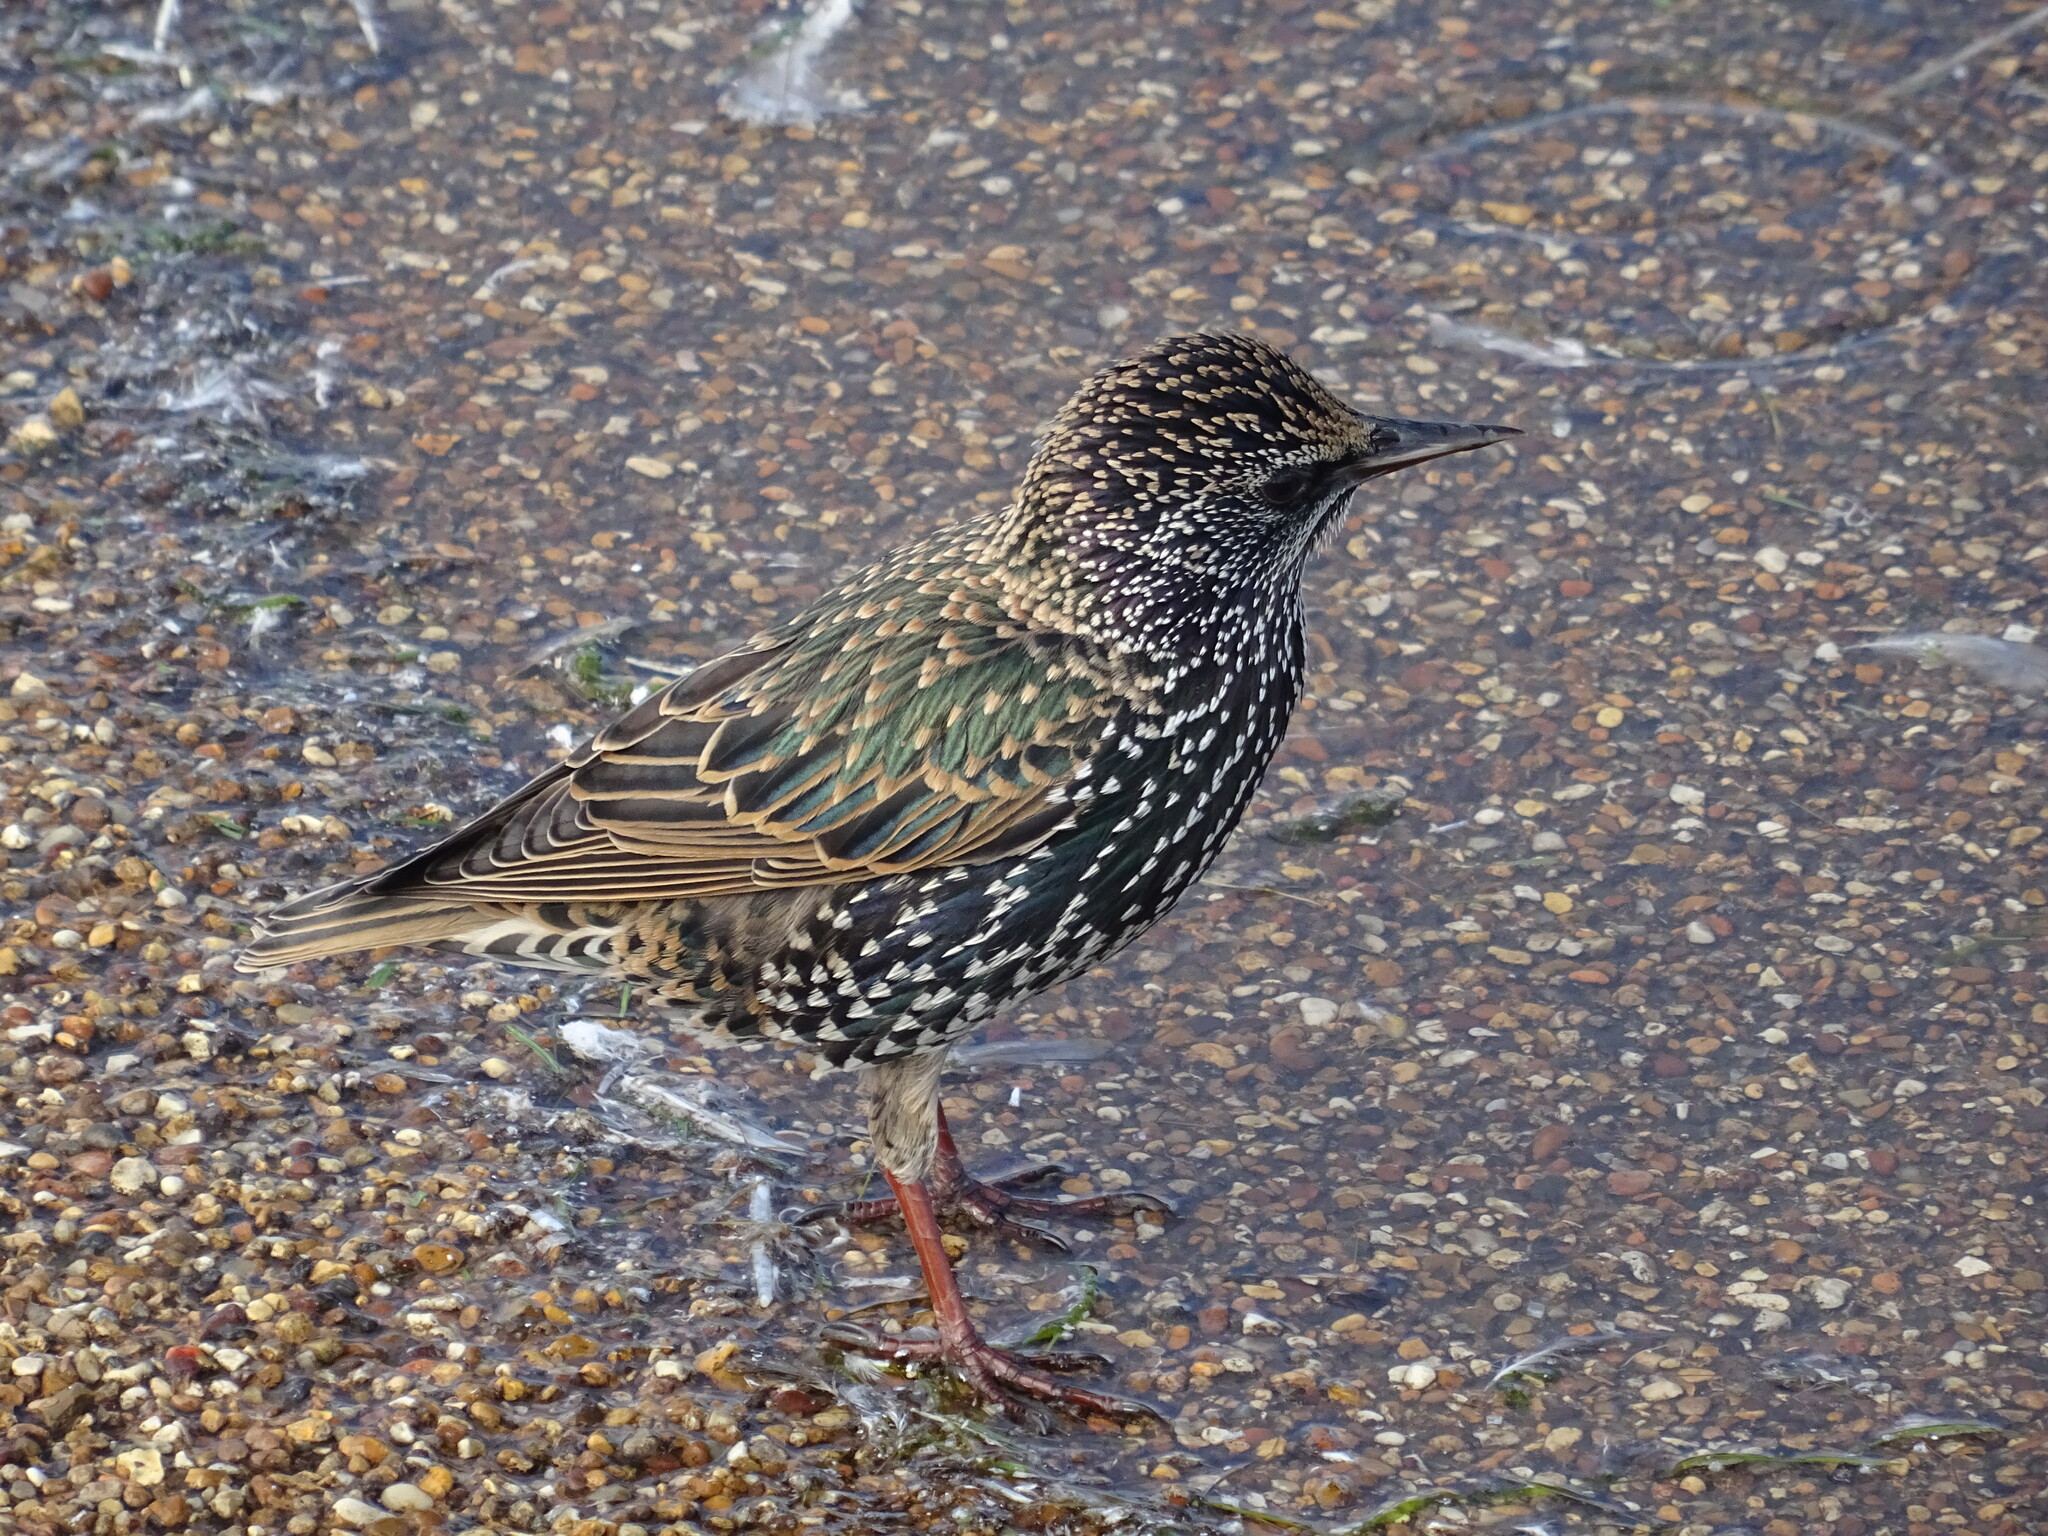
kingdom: Animalia
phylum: Chordata
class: Aves
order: Passeriformes
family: Sturnidae
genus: Sturnus
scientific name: Sturnus vulgaris
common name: Common starling
